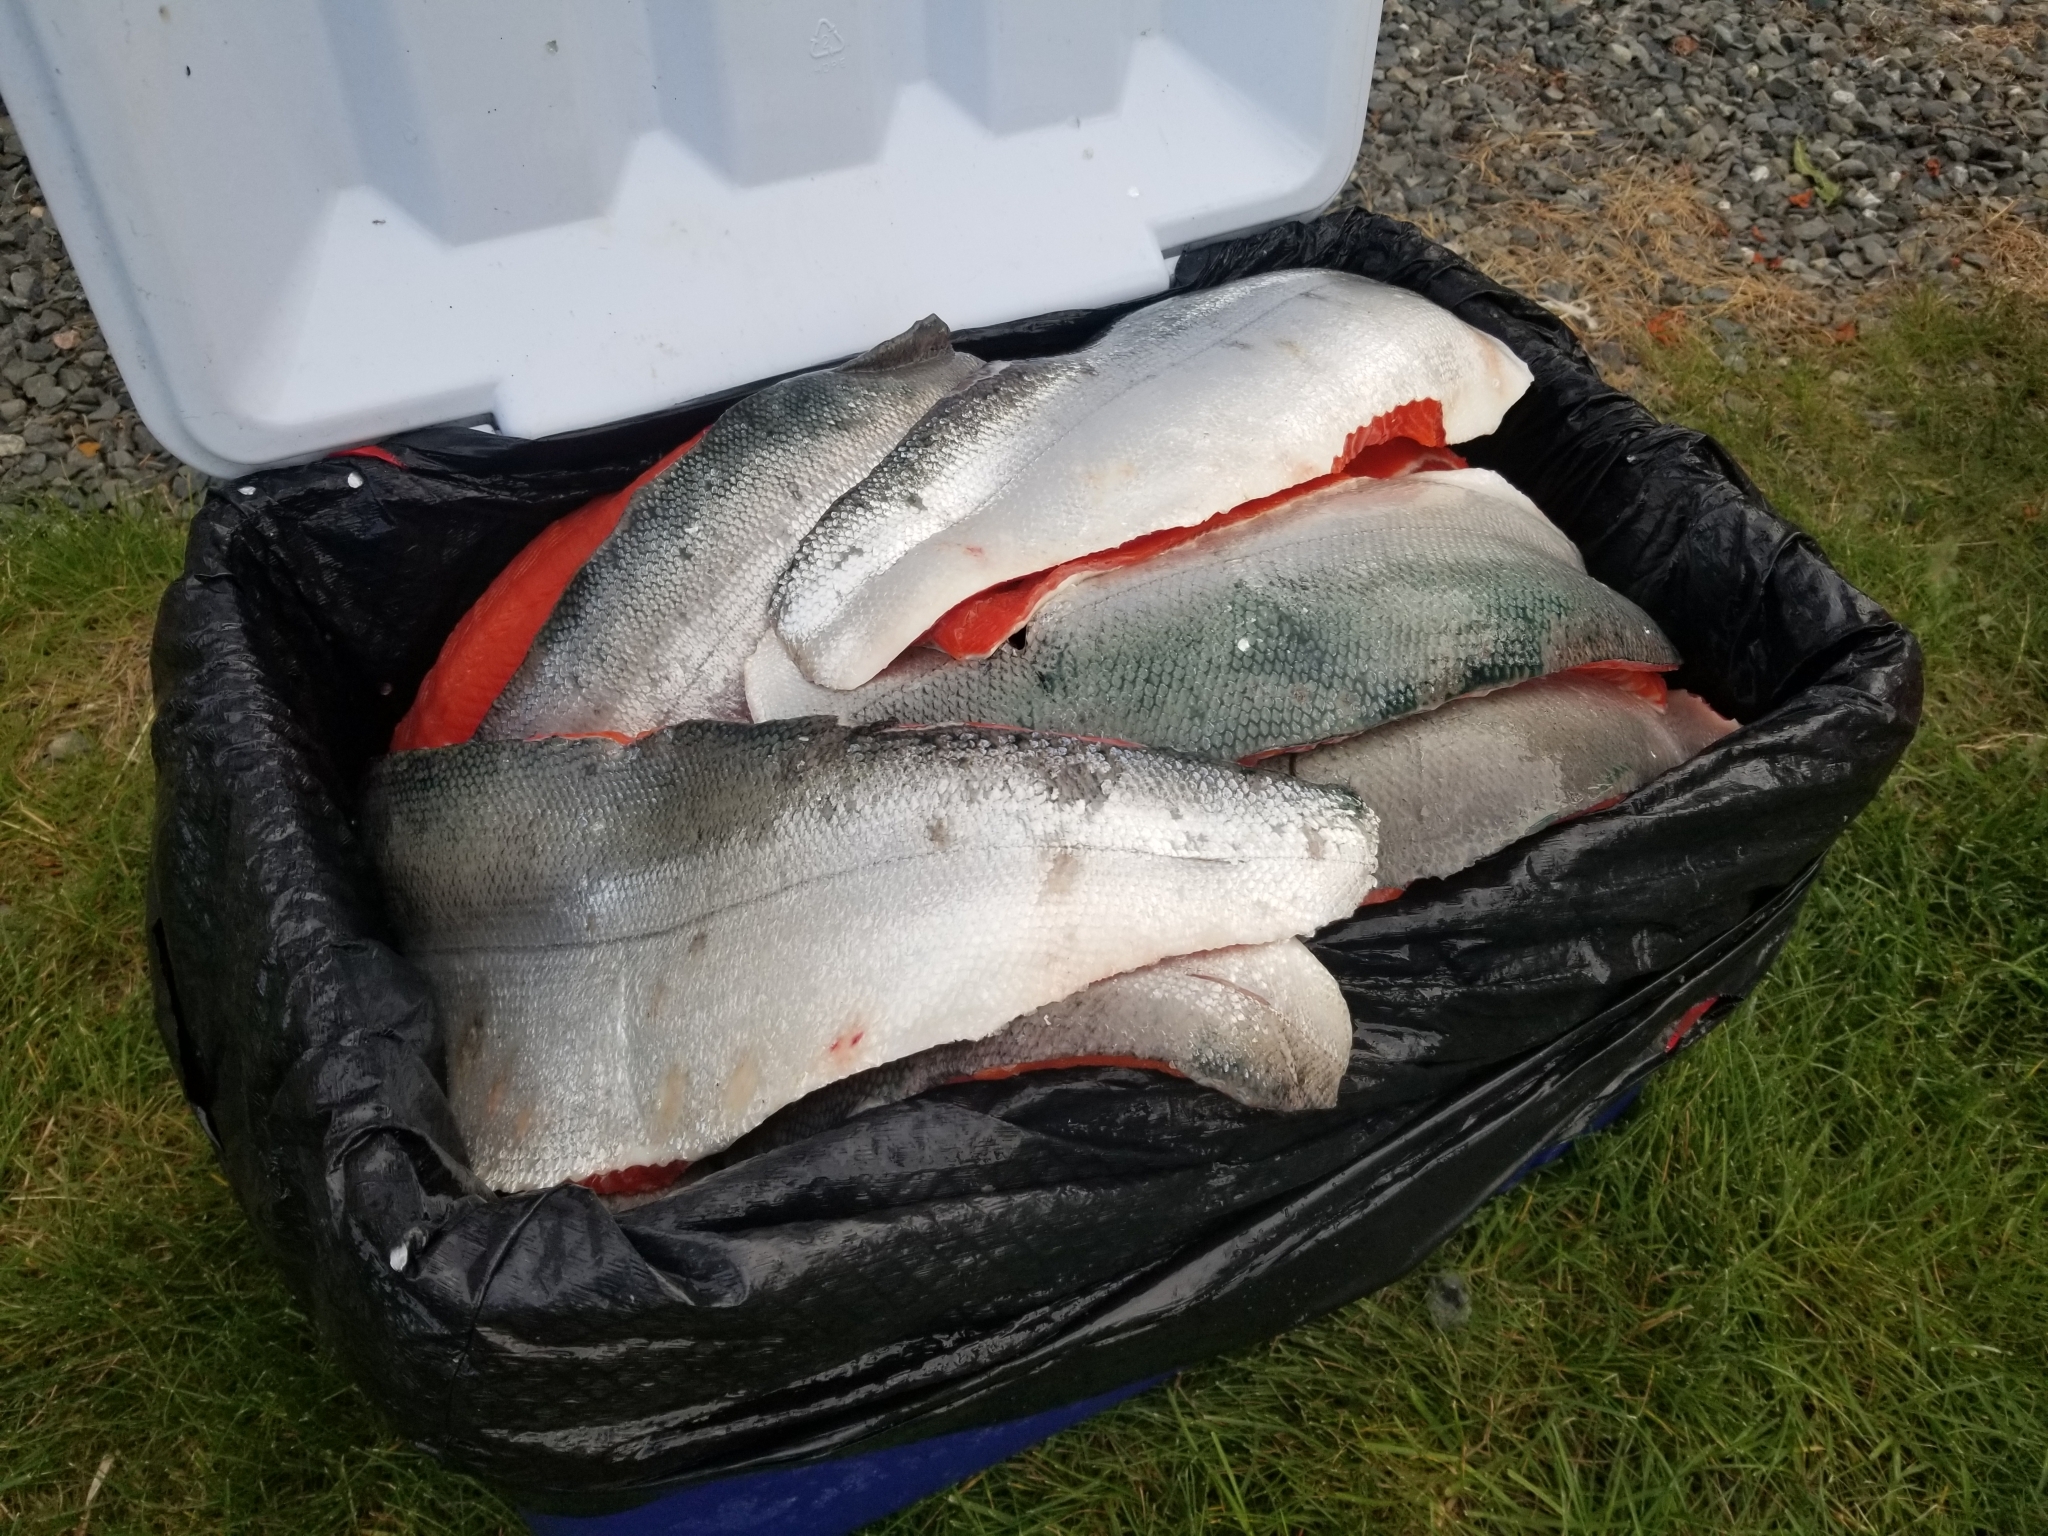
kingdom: Animalia
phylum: Chordata
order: Salmoniformes
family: Salmonidae
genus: Oncorhynchus
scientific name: Oncorhynchus nerka
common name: Sockeye salmon
